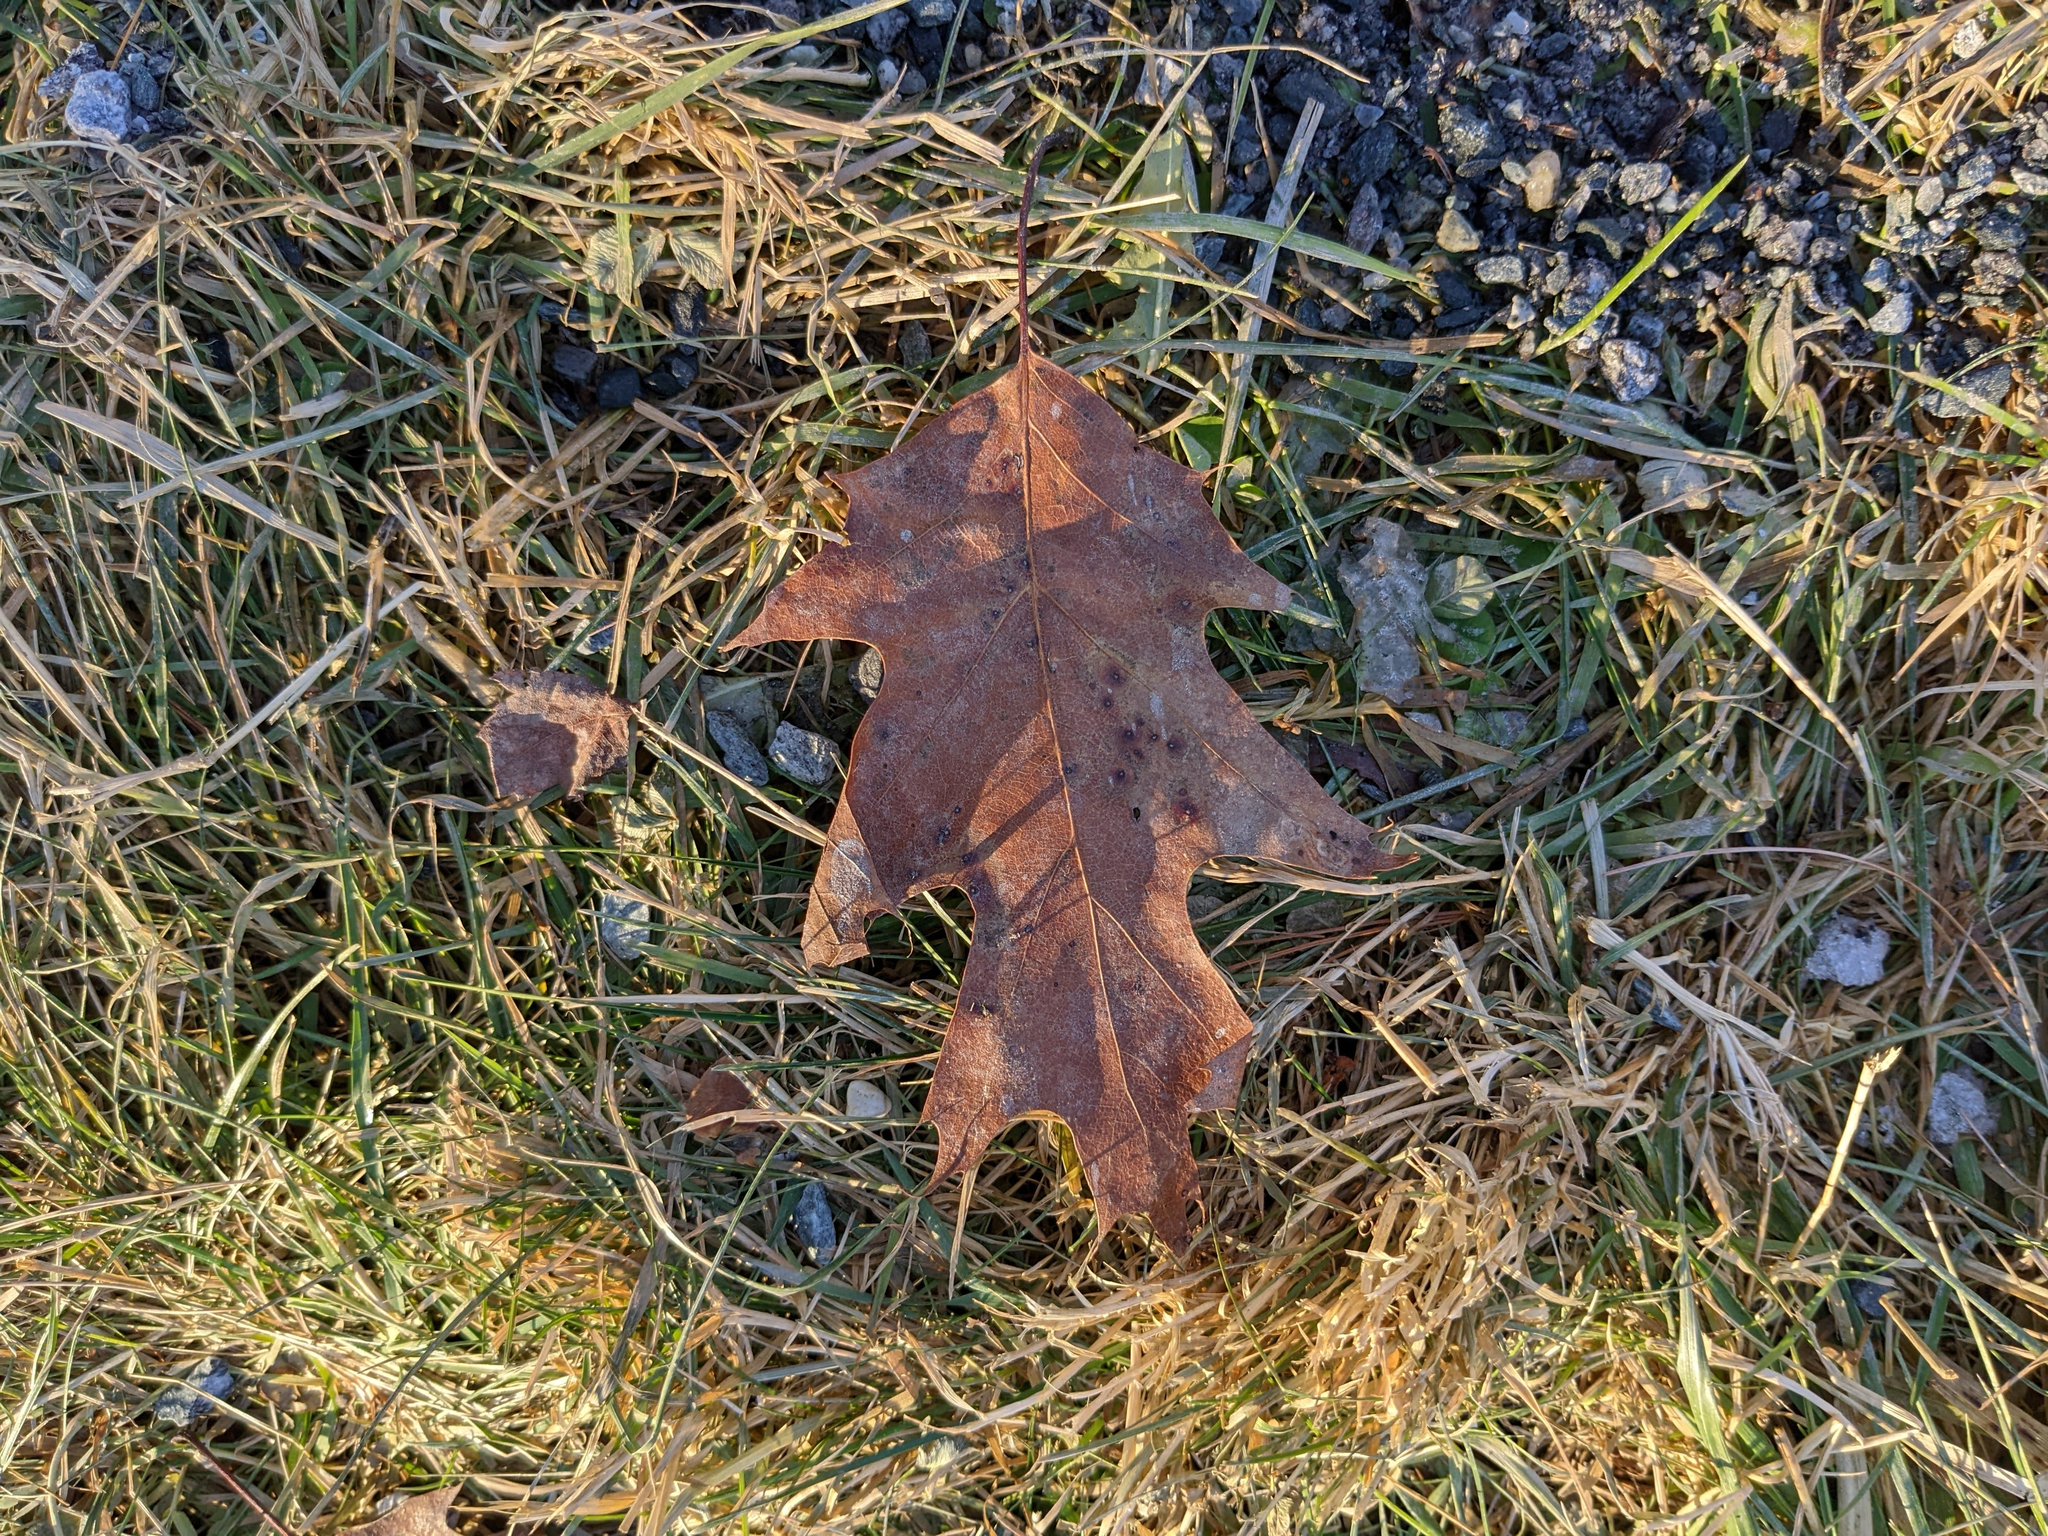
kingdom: Plantae
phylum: Tracheophyta
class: Magnoliopsida
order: Fagales
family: Fagaceae
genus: Quercus
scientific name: Quercus rubra
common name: Red oak
